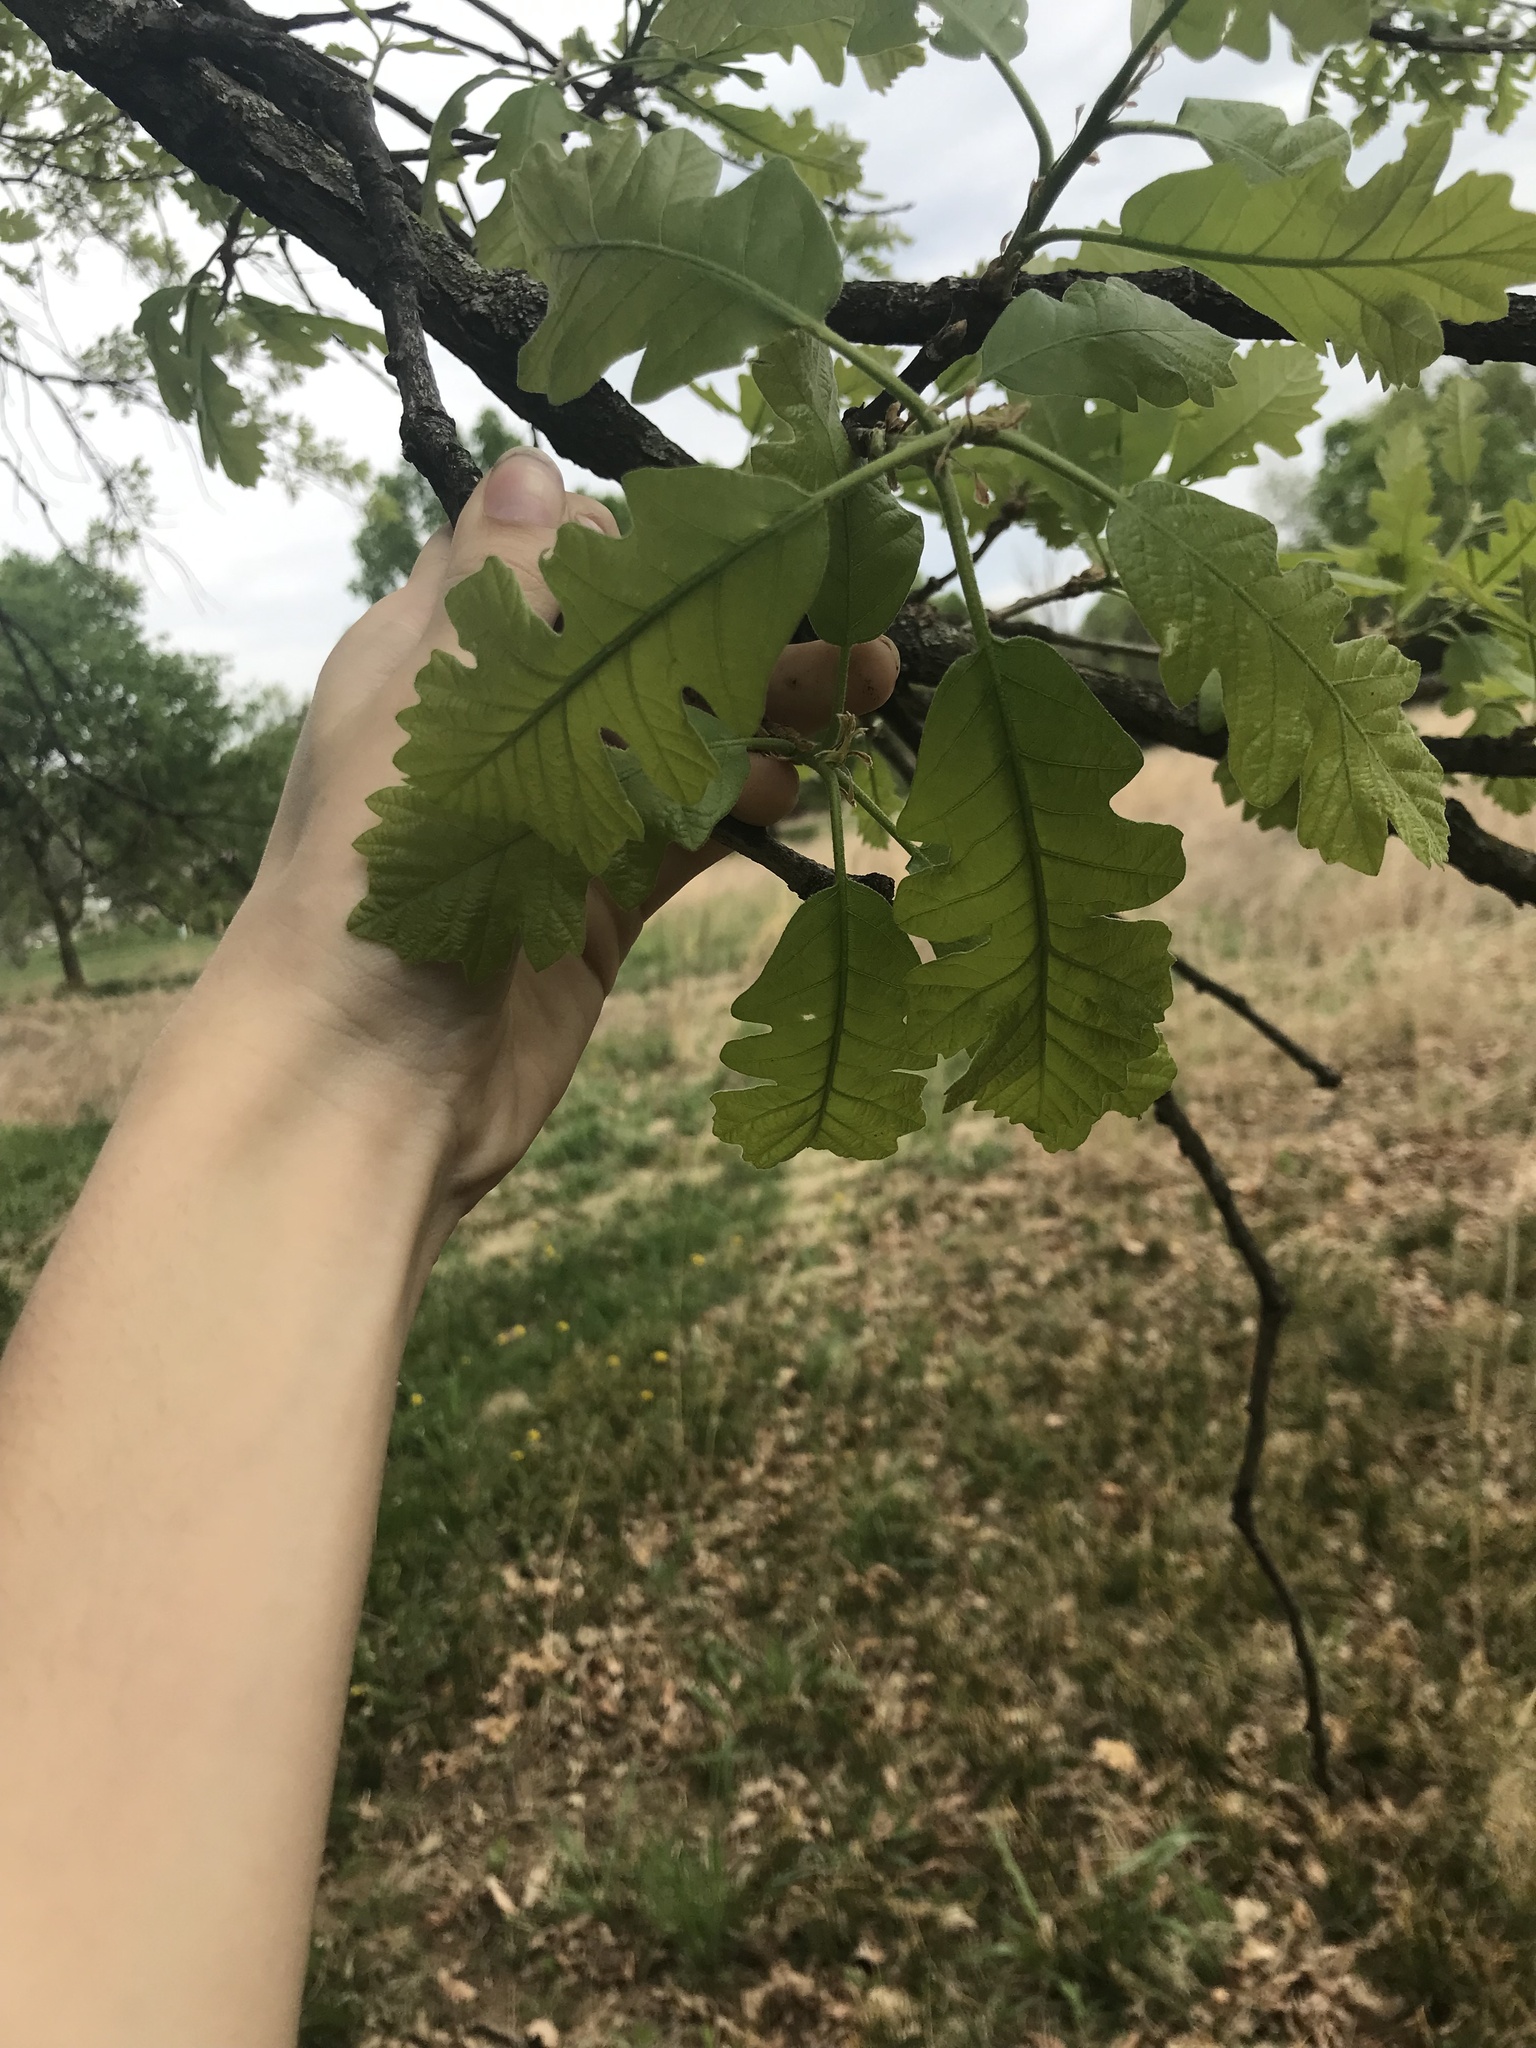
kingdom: Plantae
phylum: Tracheophyta
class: Magnoliopsida
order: Fagales
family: Fagaceae
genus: Quercus
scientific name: Quercus macrocarpa
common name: Bur oak
